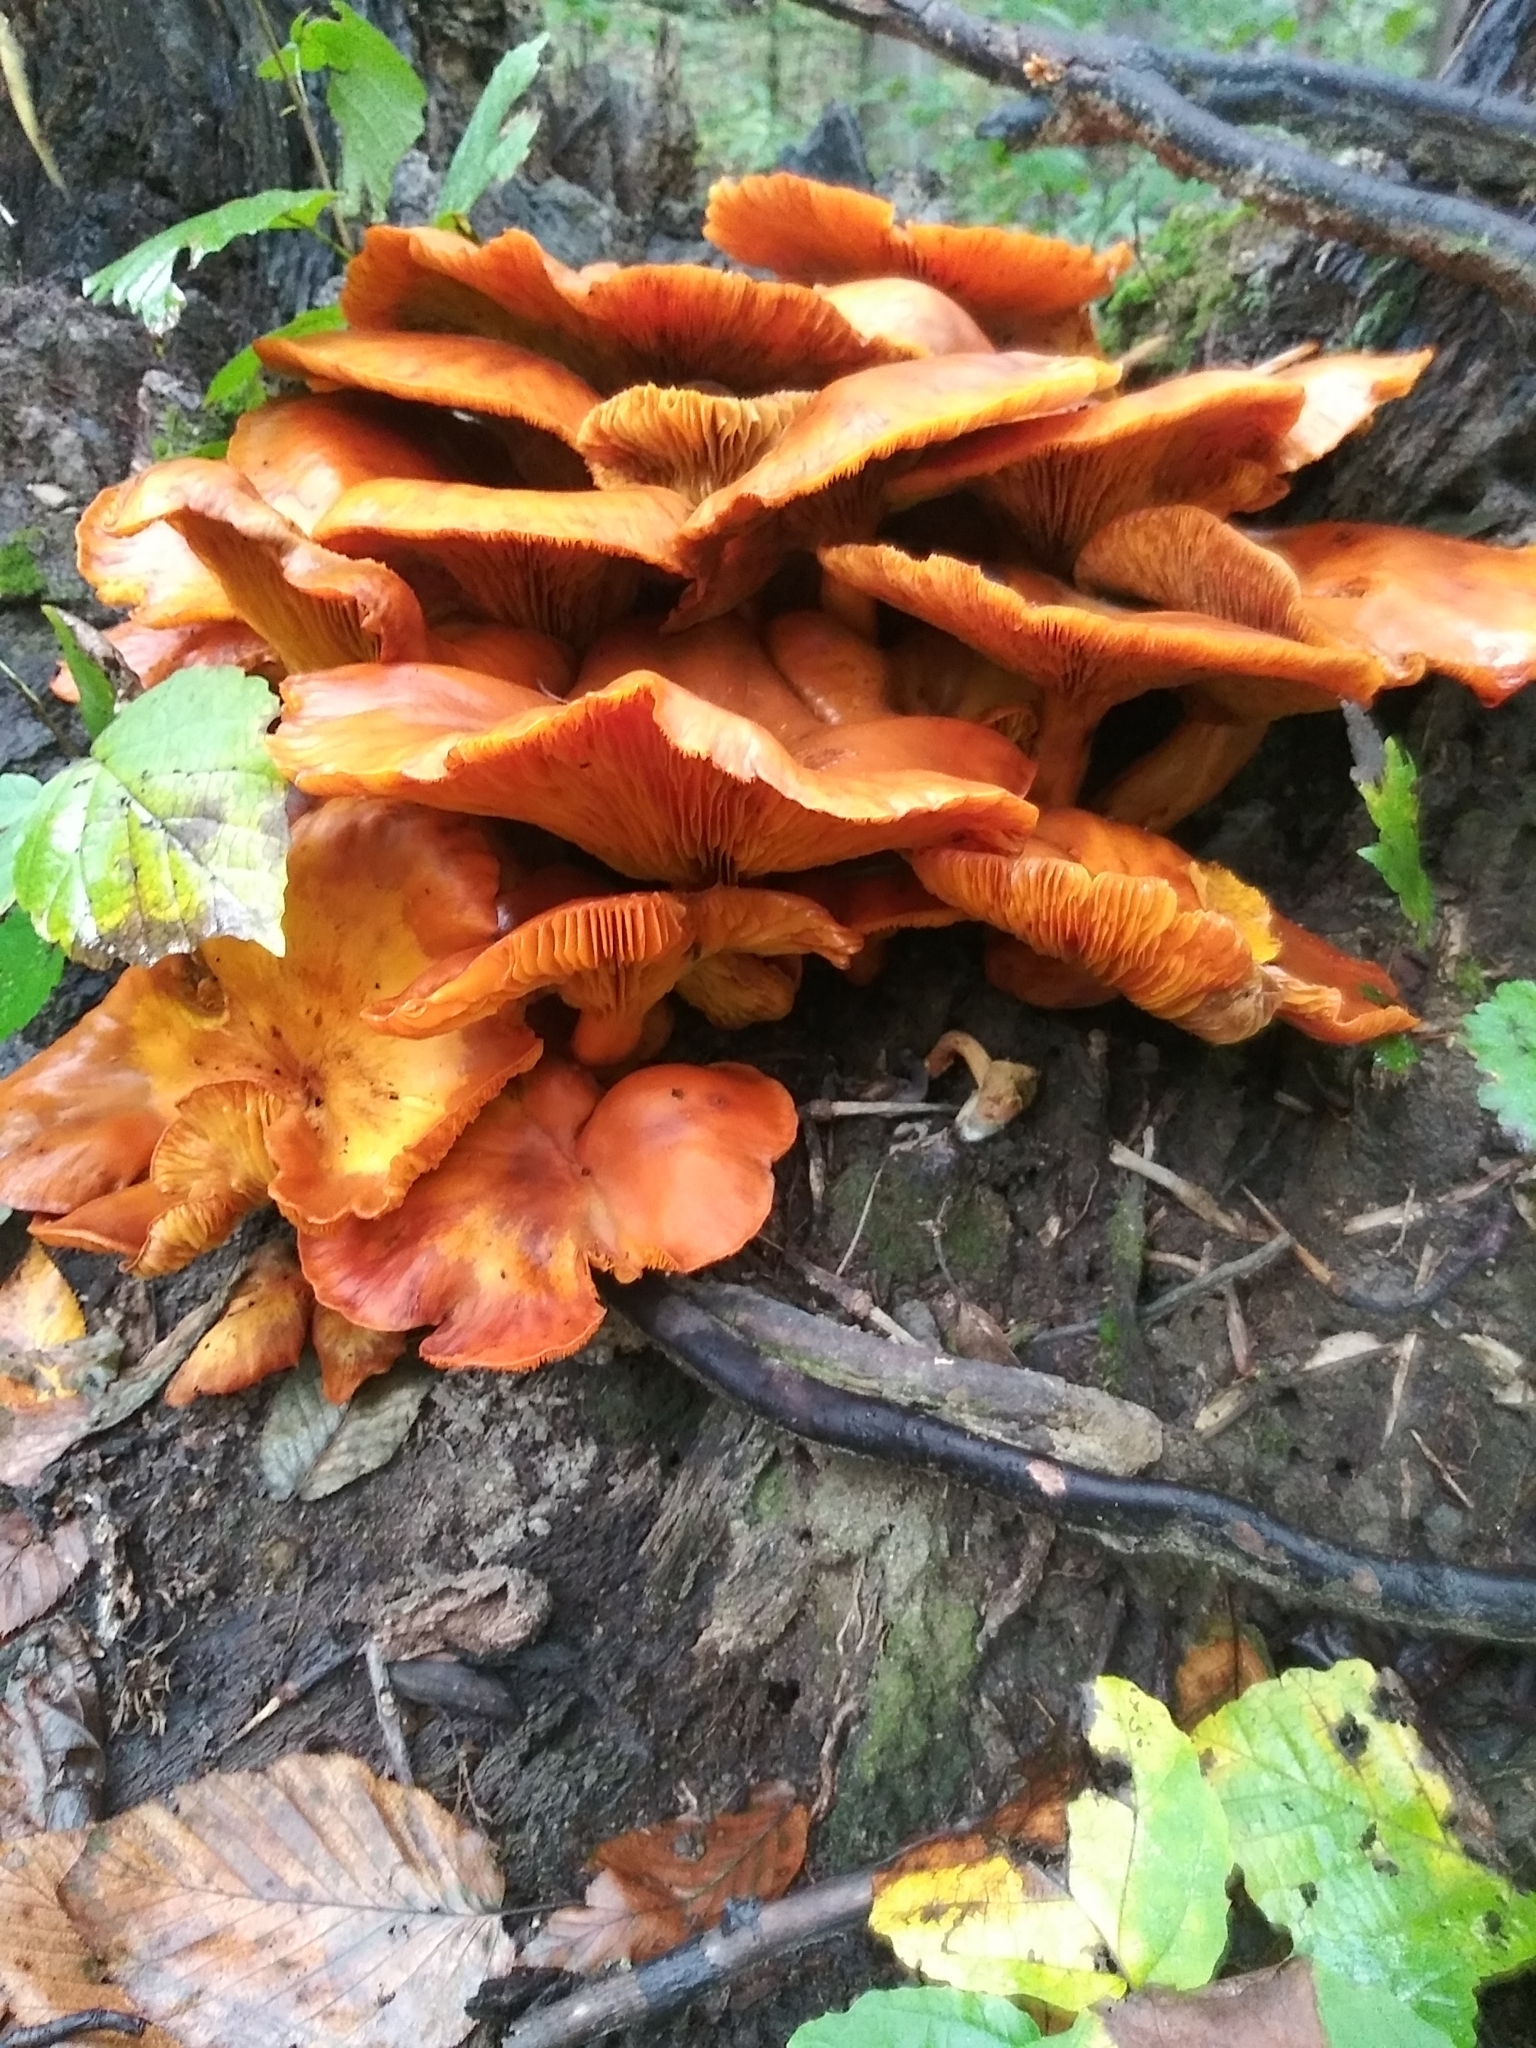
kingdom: Fungi
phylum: Basidiomycota
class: Agaricomycetes
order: Agaricales
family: Omphalotaceae
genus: Omphalotus
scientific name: Omphalotus illudens
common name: Jack o lantern
